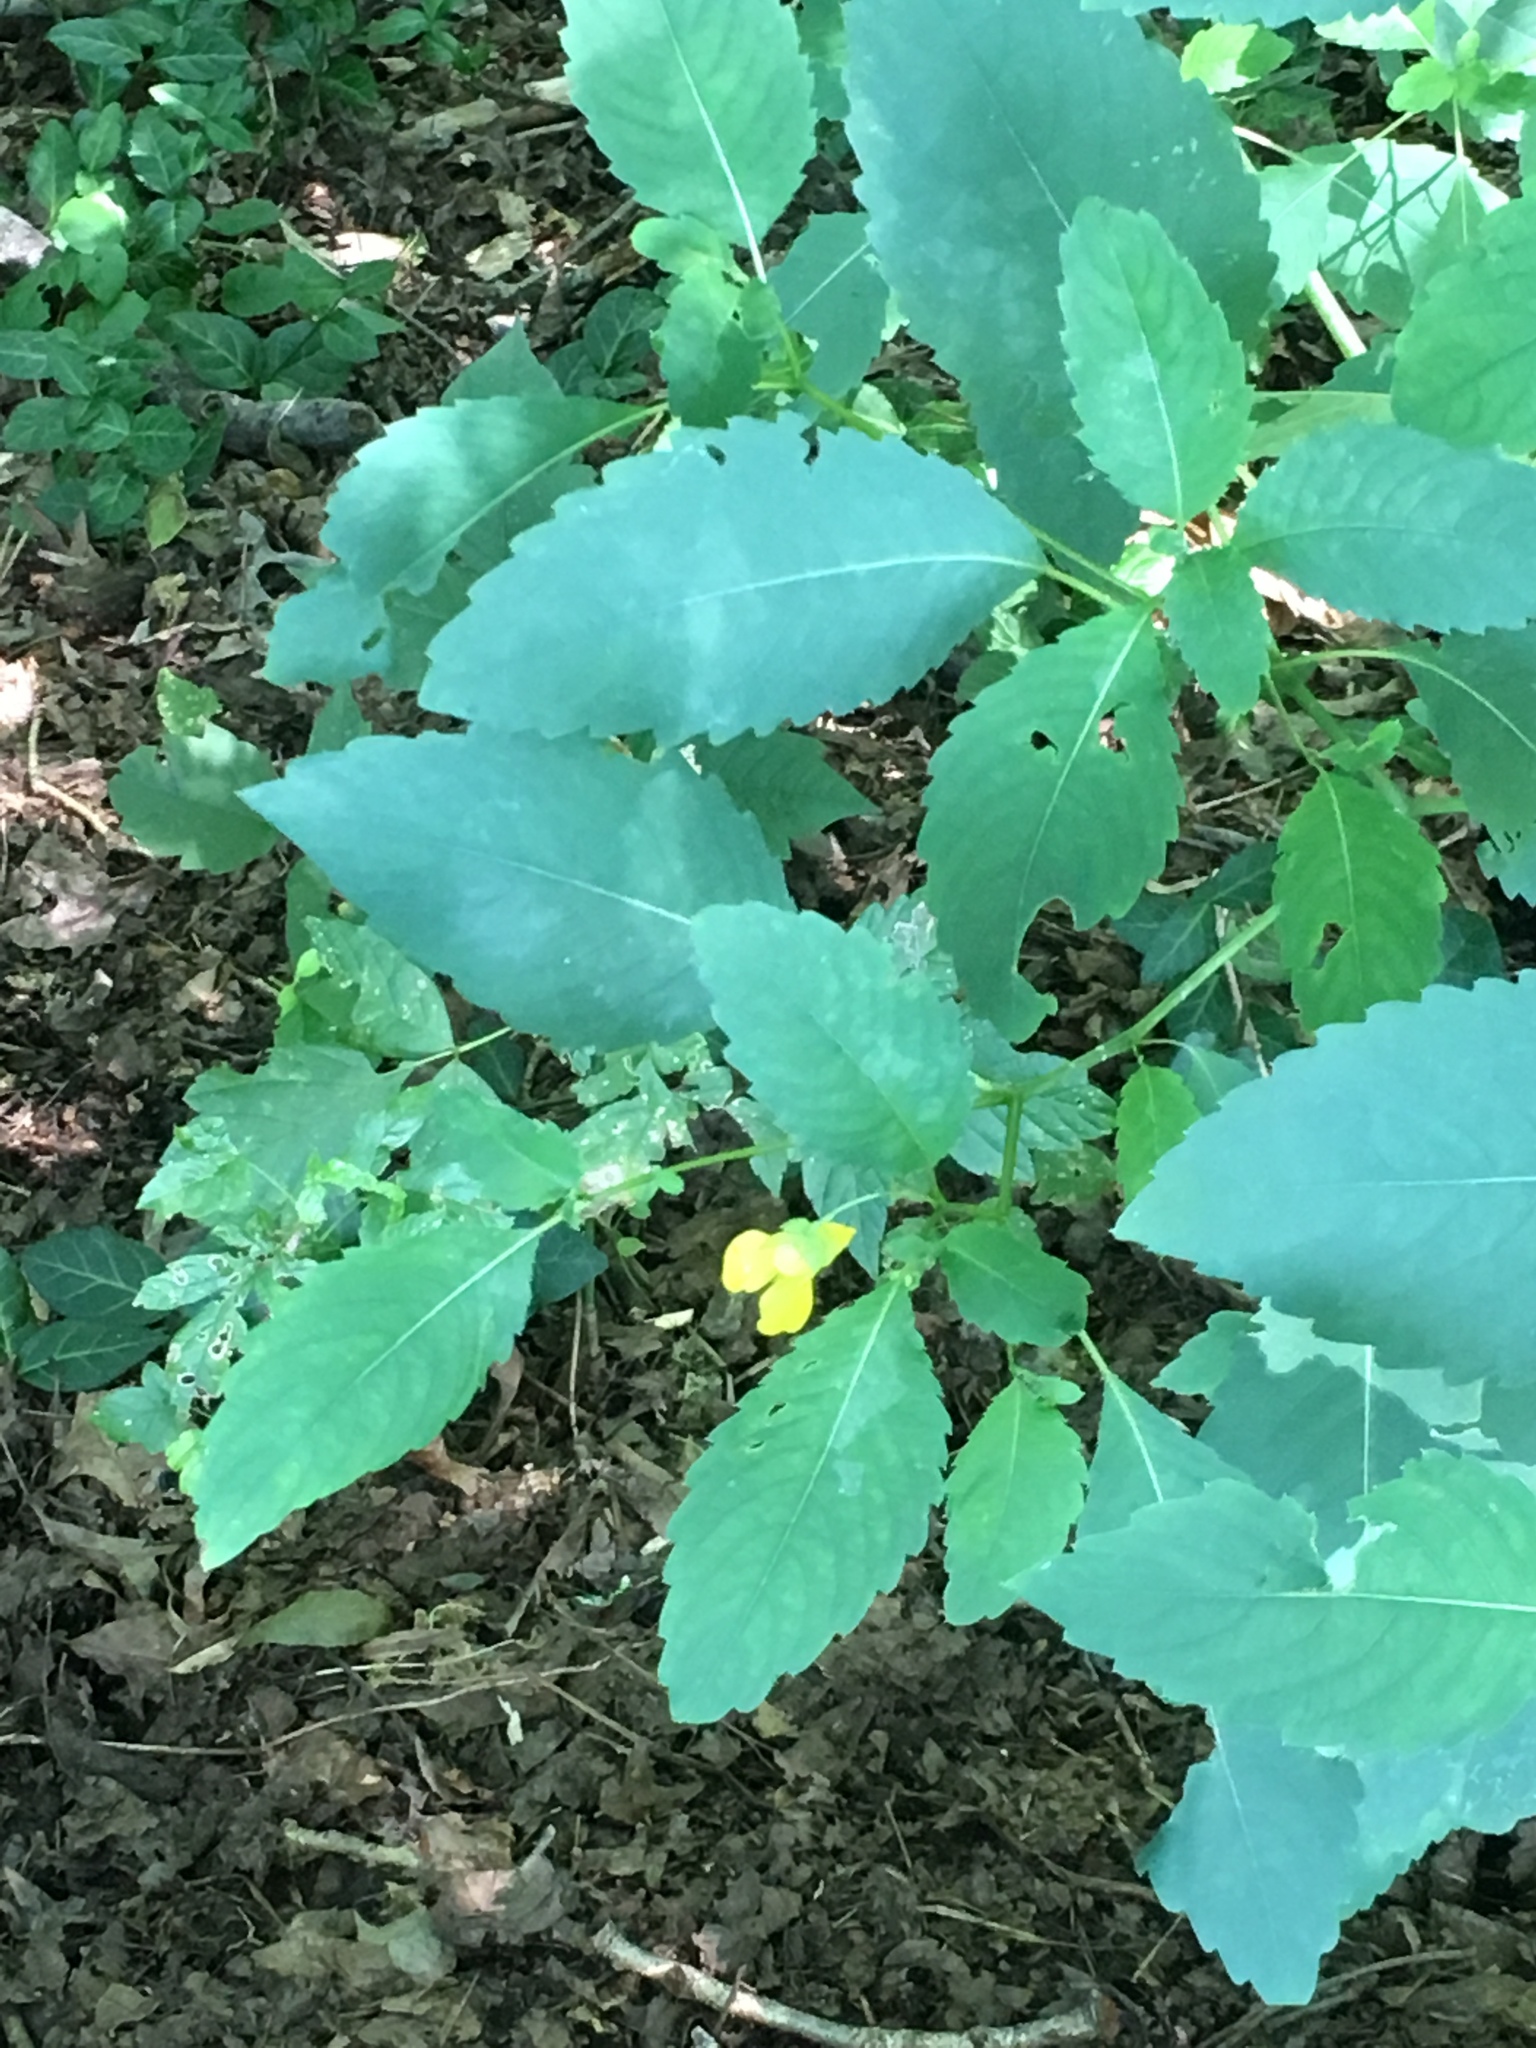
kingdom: Plantae
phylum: Tracheophyta
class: Magnoliopsida
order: Ericales
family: Balsaminaceae
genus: Impatiens
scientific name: Impatiens pallida
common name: Pale snapweed
